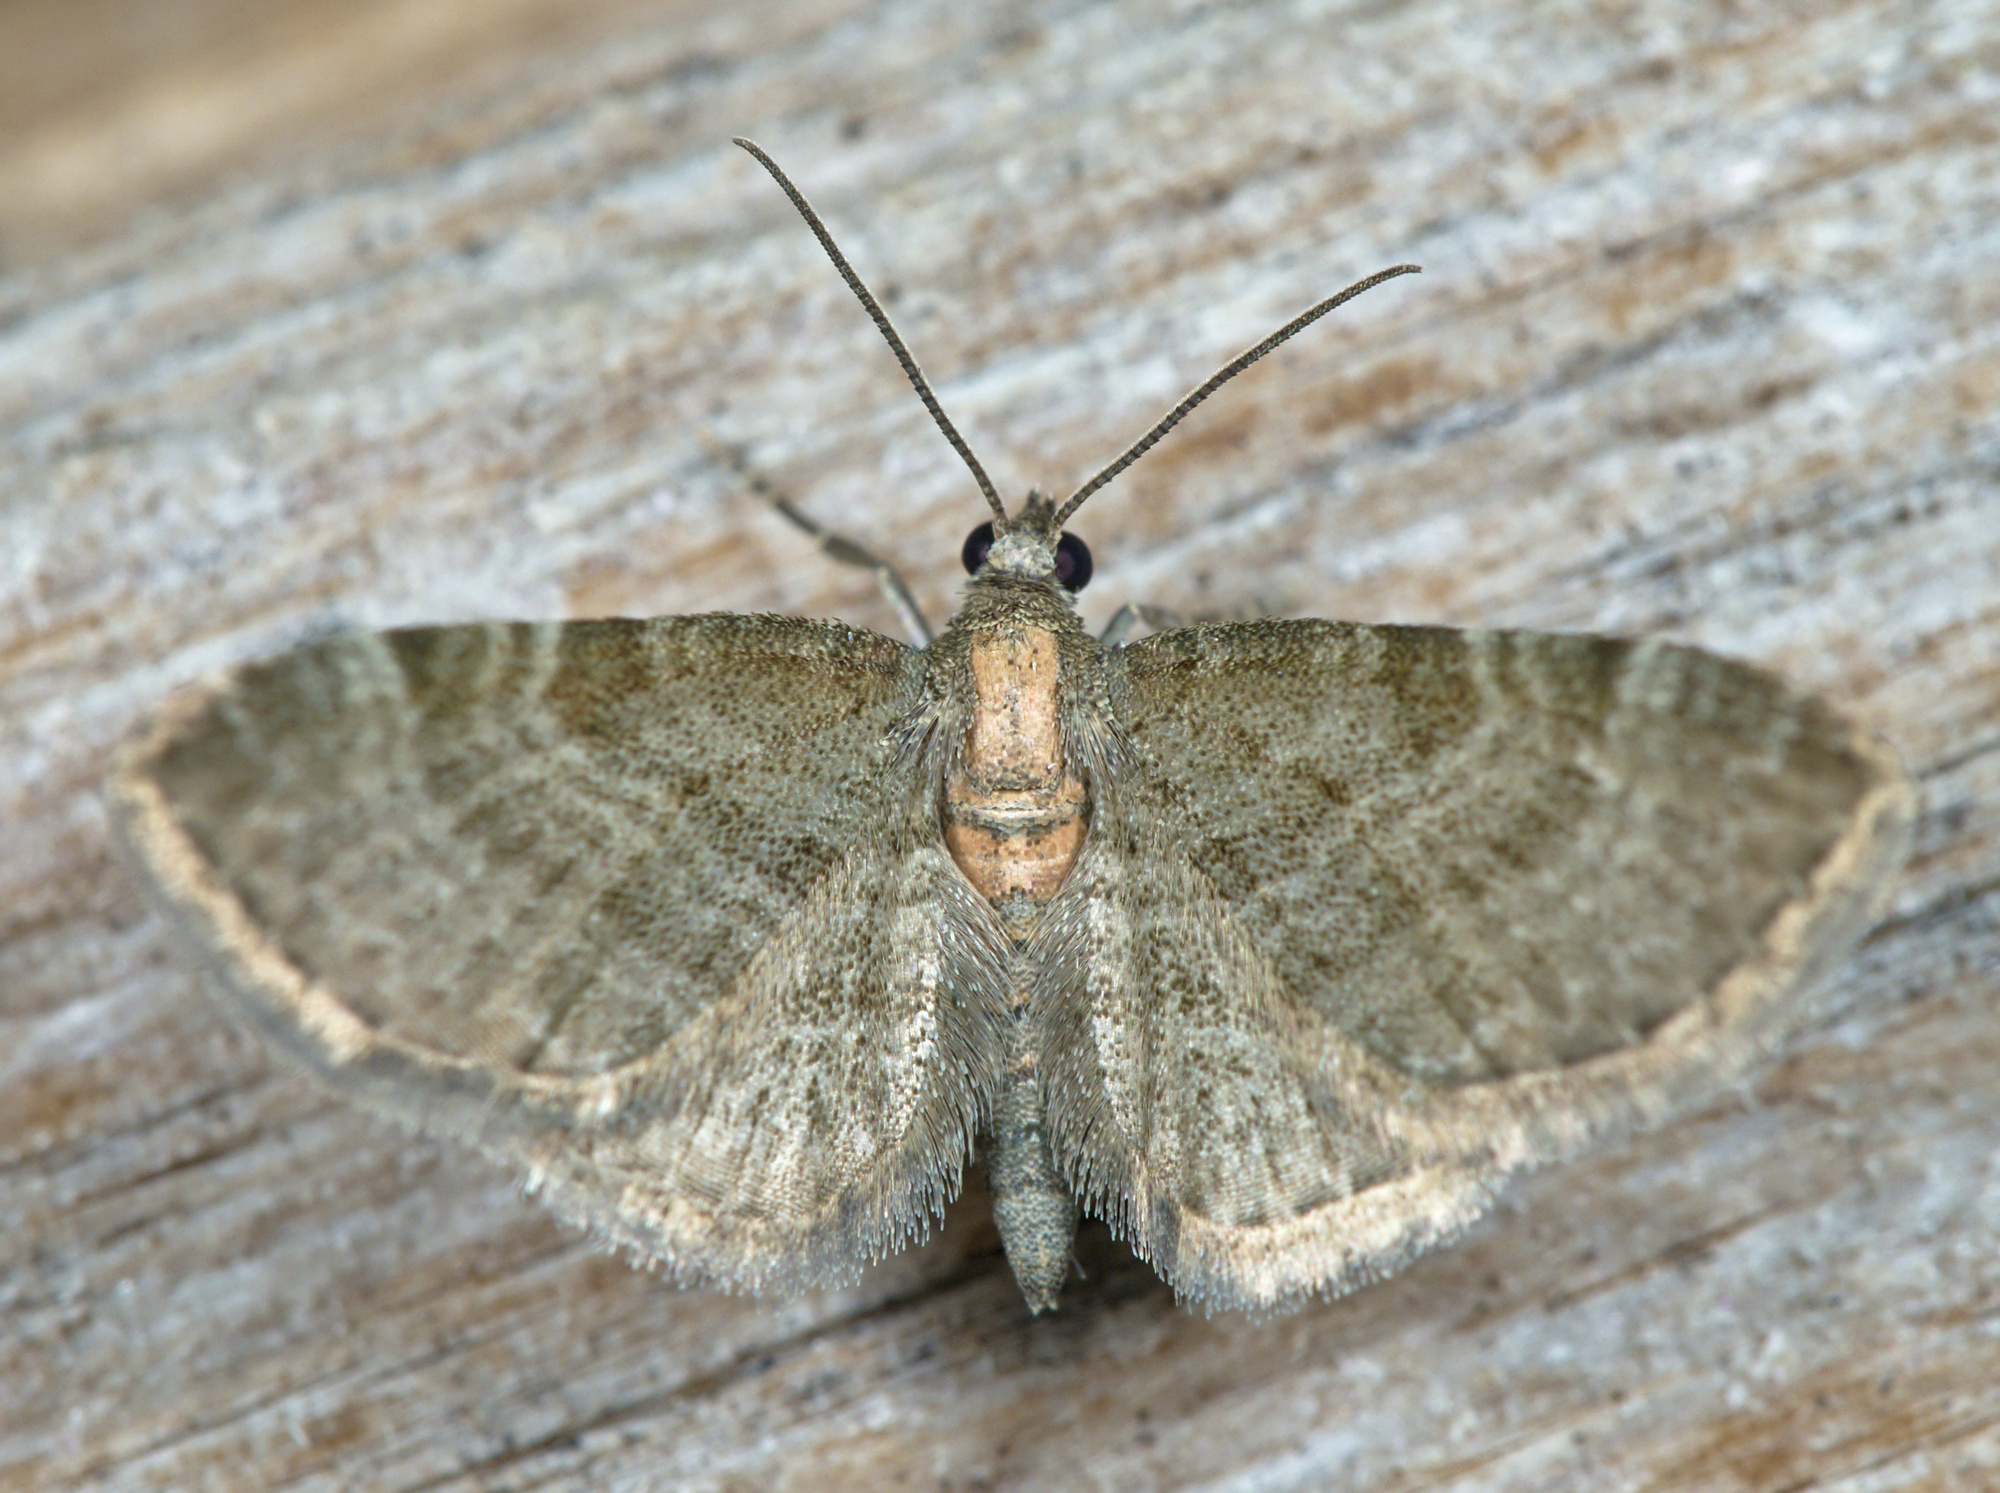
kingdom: Animalia
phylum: Arthropoda
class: Insecta
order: Lepidoptera
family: Geometridae
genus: Eupithecia
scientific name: Eupithecia haworthiata
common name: Haworth's pug
